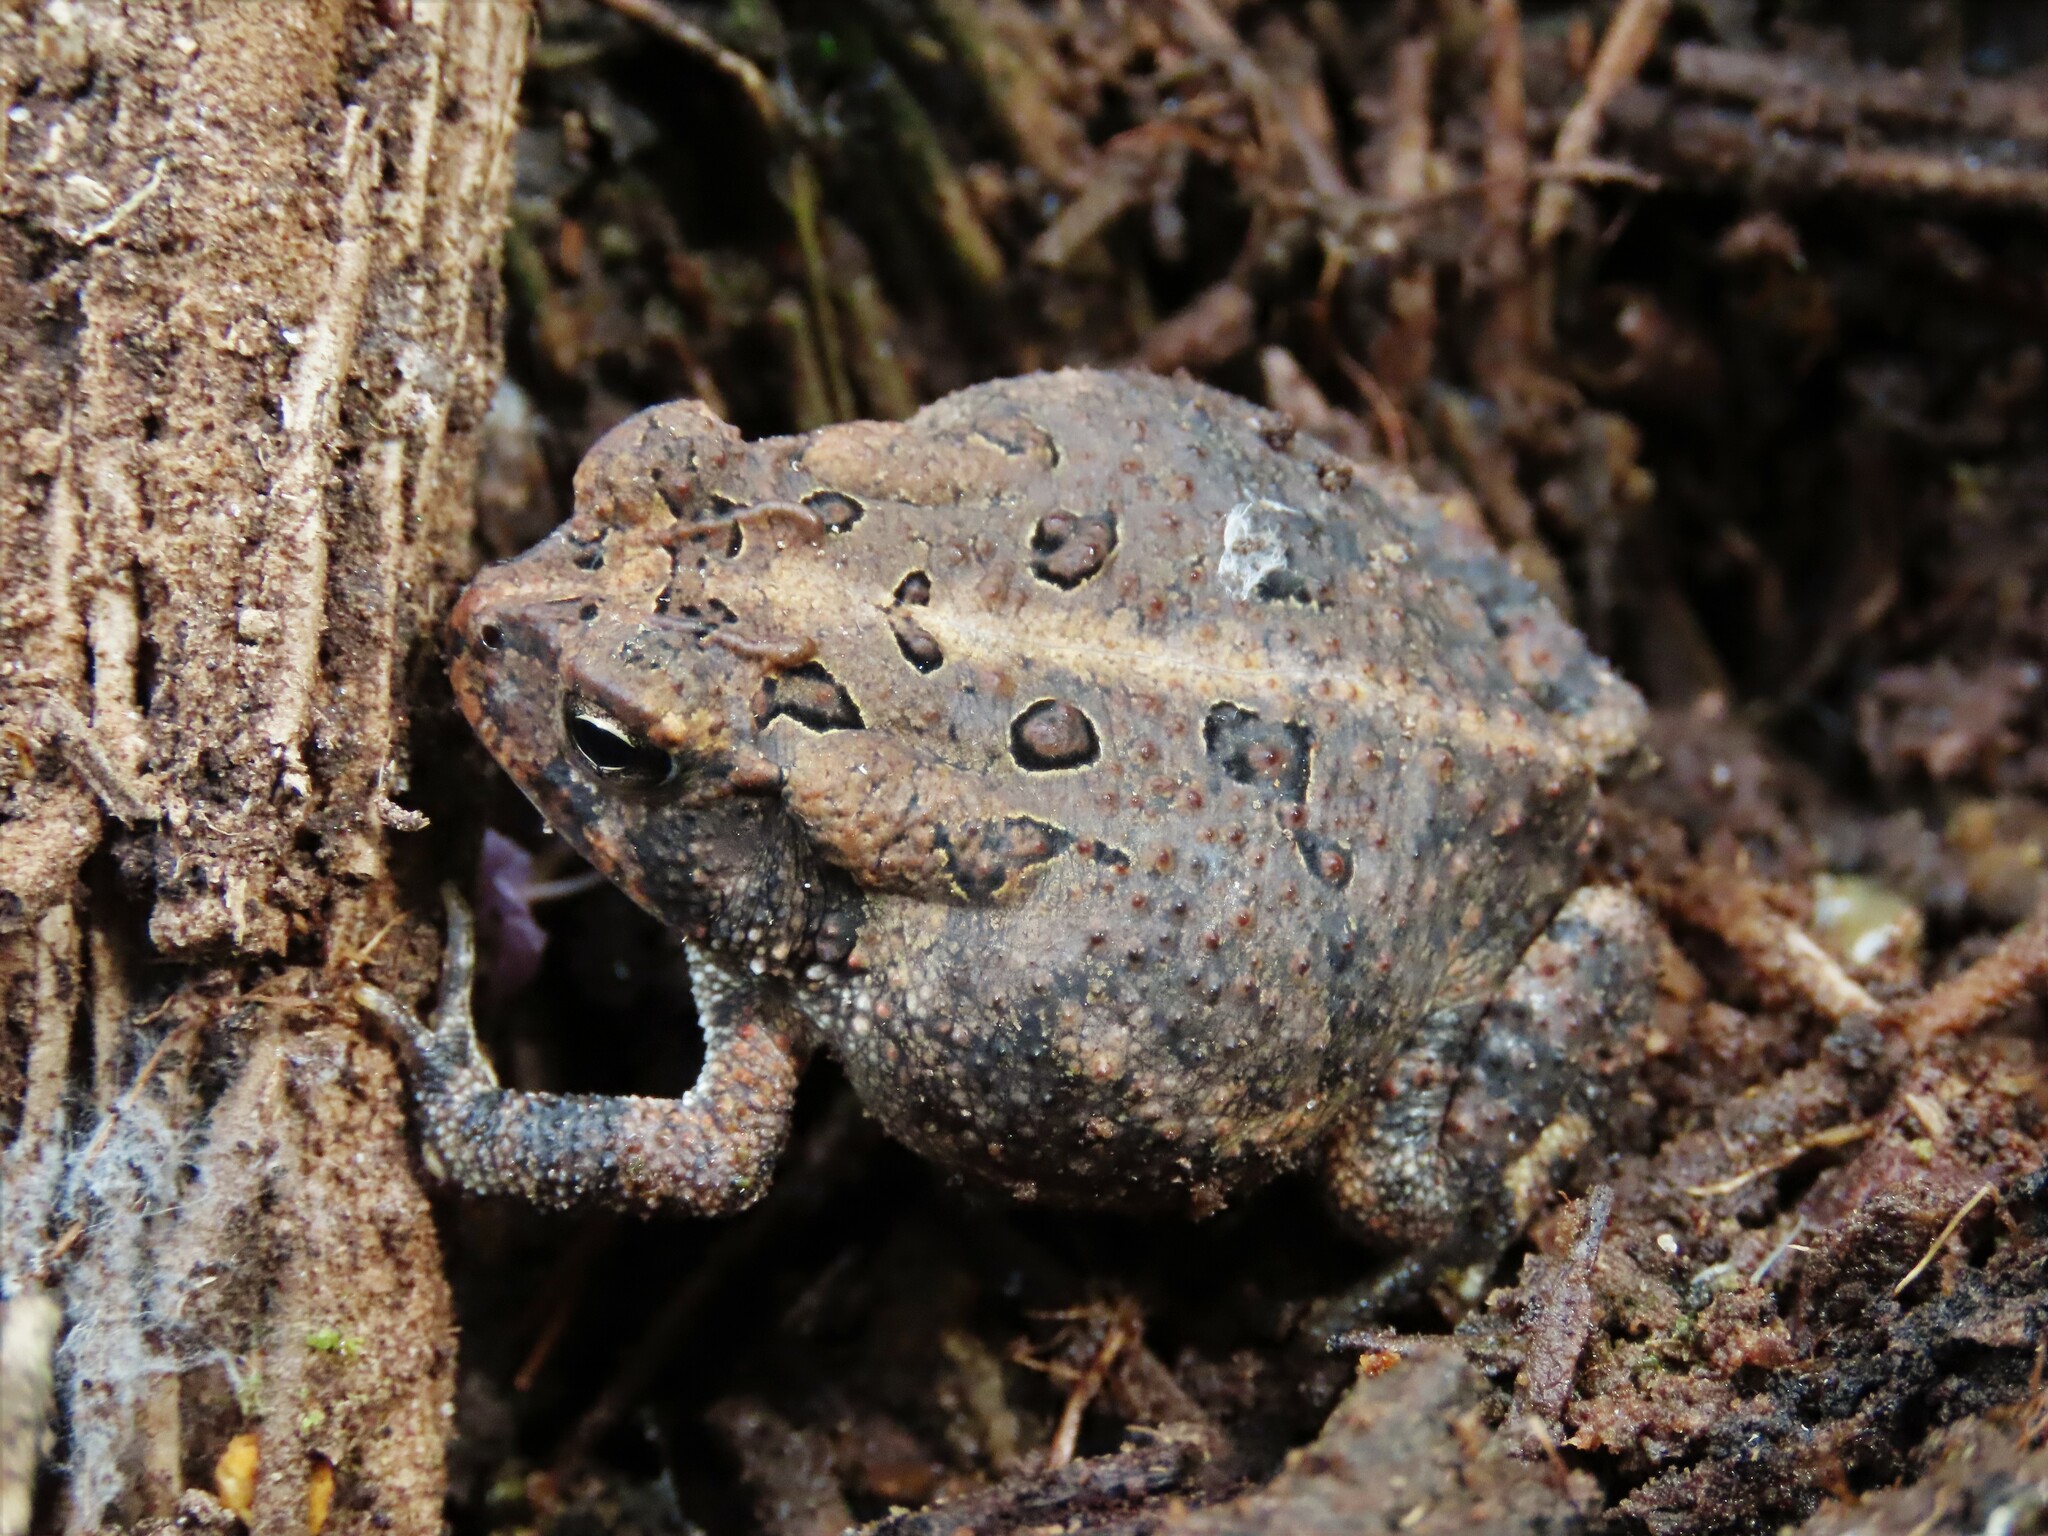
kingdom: Animalia
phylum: Chordata
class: Amphibia
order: Anura
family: Bufonidae
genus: Anaxyrus
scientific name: Anaxyrus terrestris
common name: Southern toad
